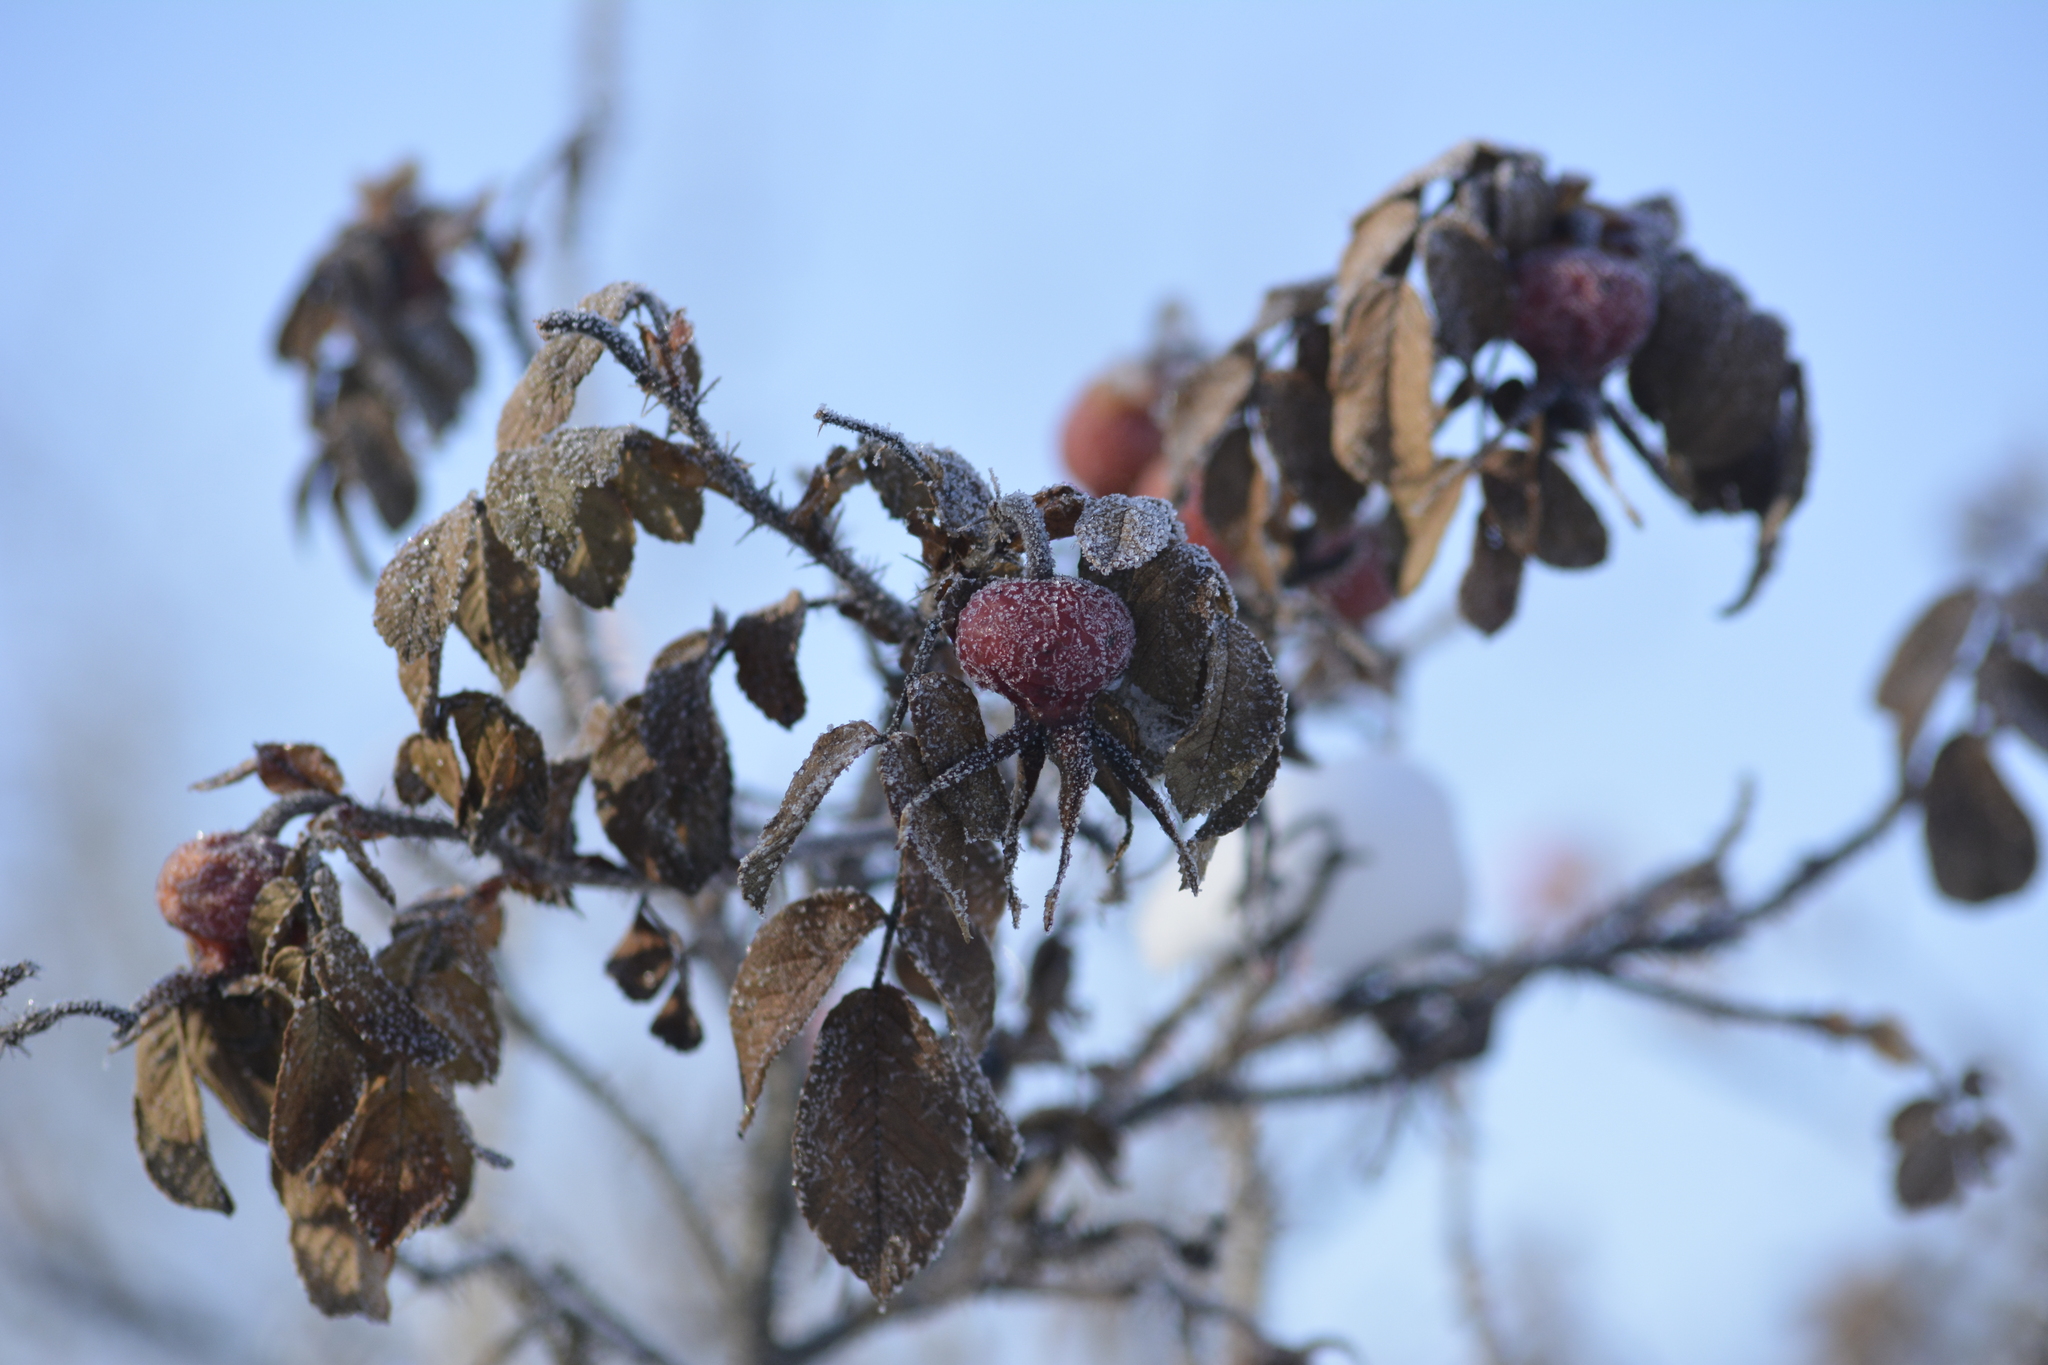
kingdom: Plantae
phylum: Tracheophyta
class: Magnoliopsida
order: Rosales
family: Rosaceae
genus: Rosa
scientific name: Rosa rugosa
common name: Japanese rose
